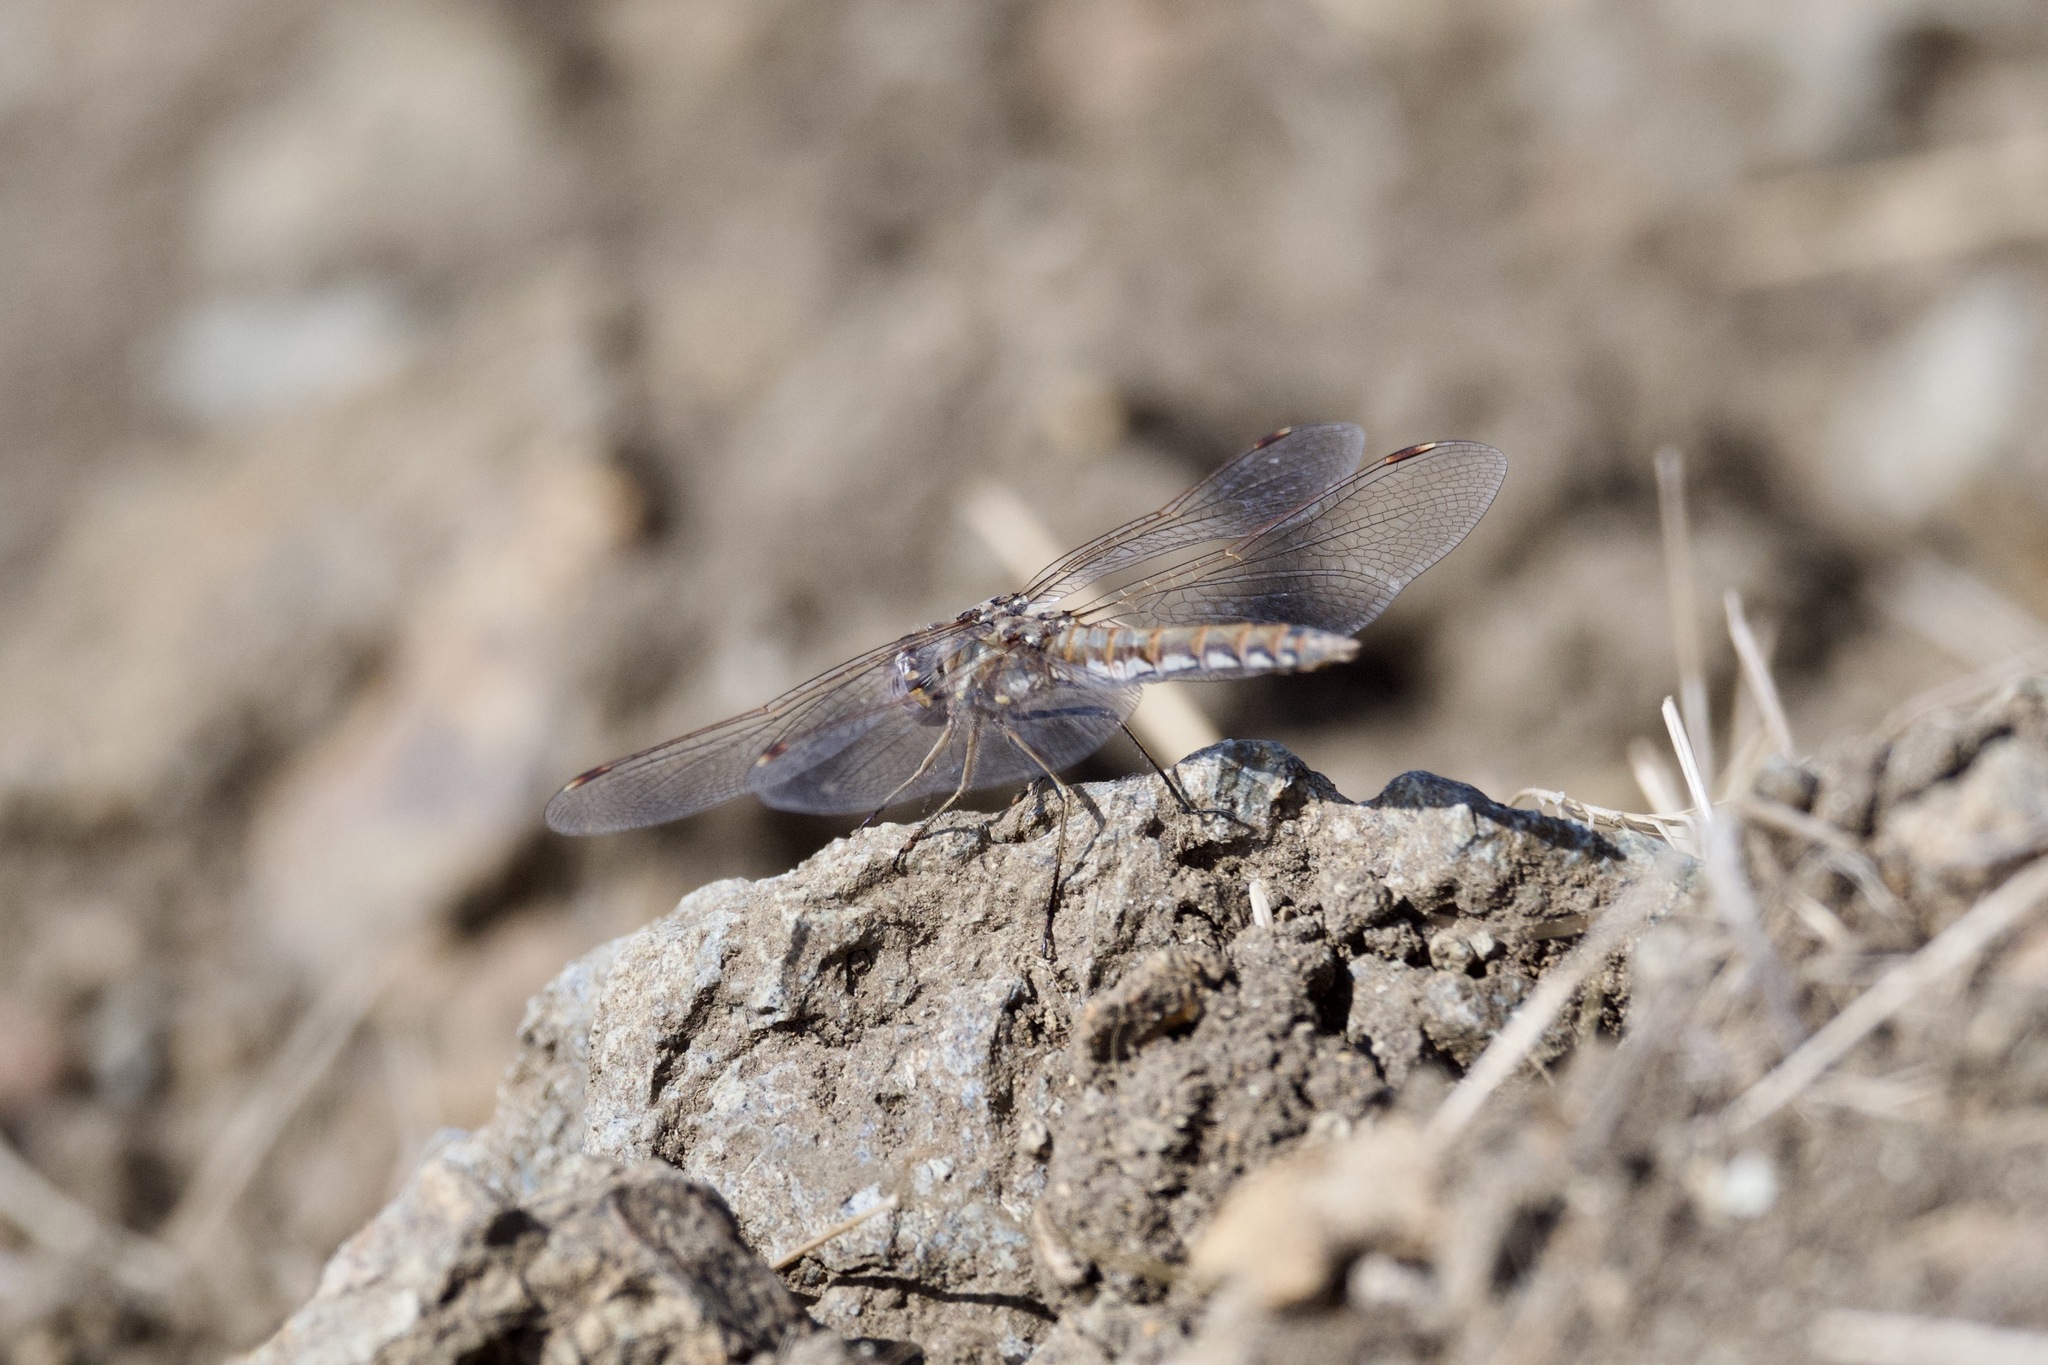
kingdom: Animalia
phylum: Arthropoda
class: Insecta
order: Odonata
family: Libellulidae
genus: Sympetrum
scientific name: Sympetrum corruptum
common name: Variegated meadowhawk
